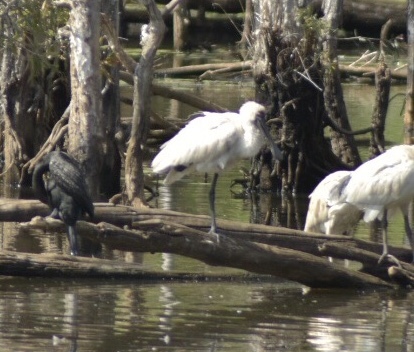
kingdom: Animalia
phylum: Chordata
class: Aves
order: Pelecaniformes
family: Threskiornithidae
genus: Platalea
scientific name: Platalea regia
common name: Royal spoonbill
